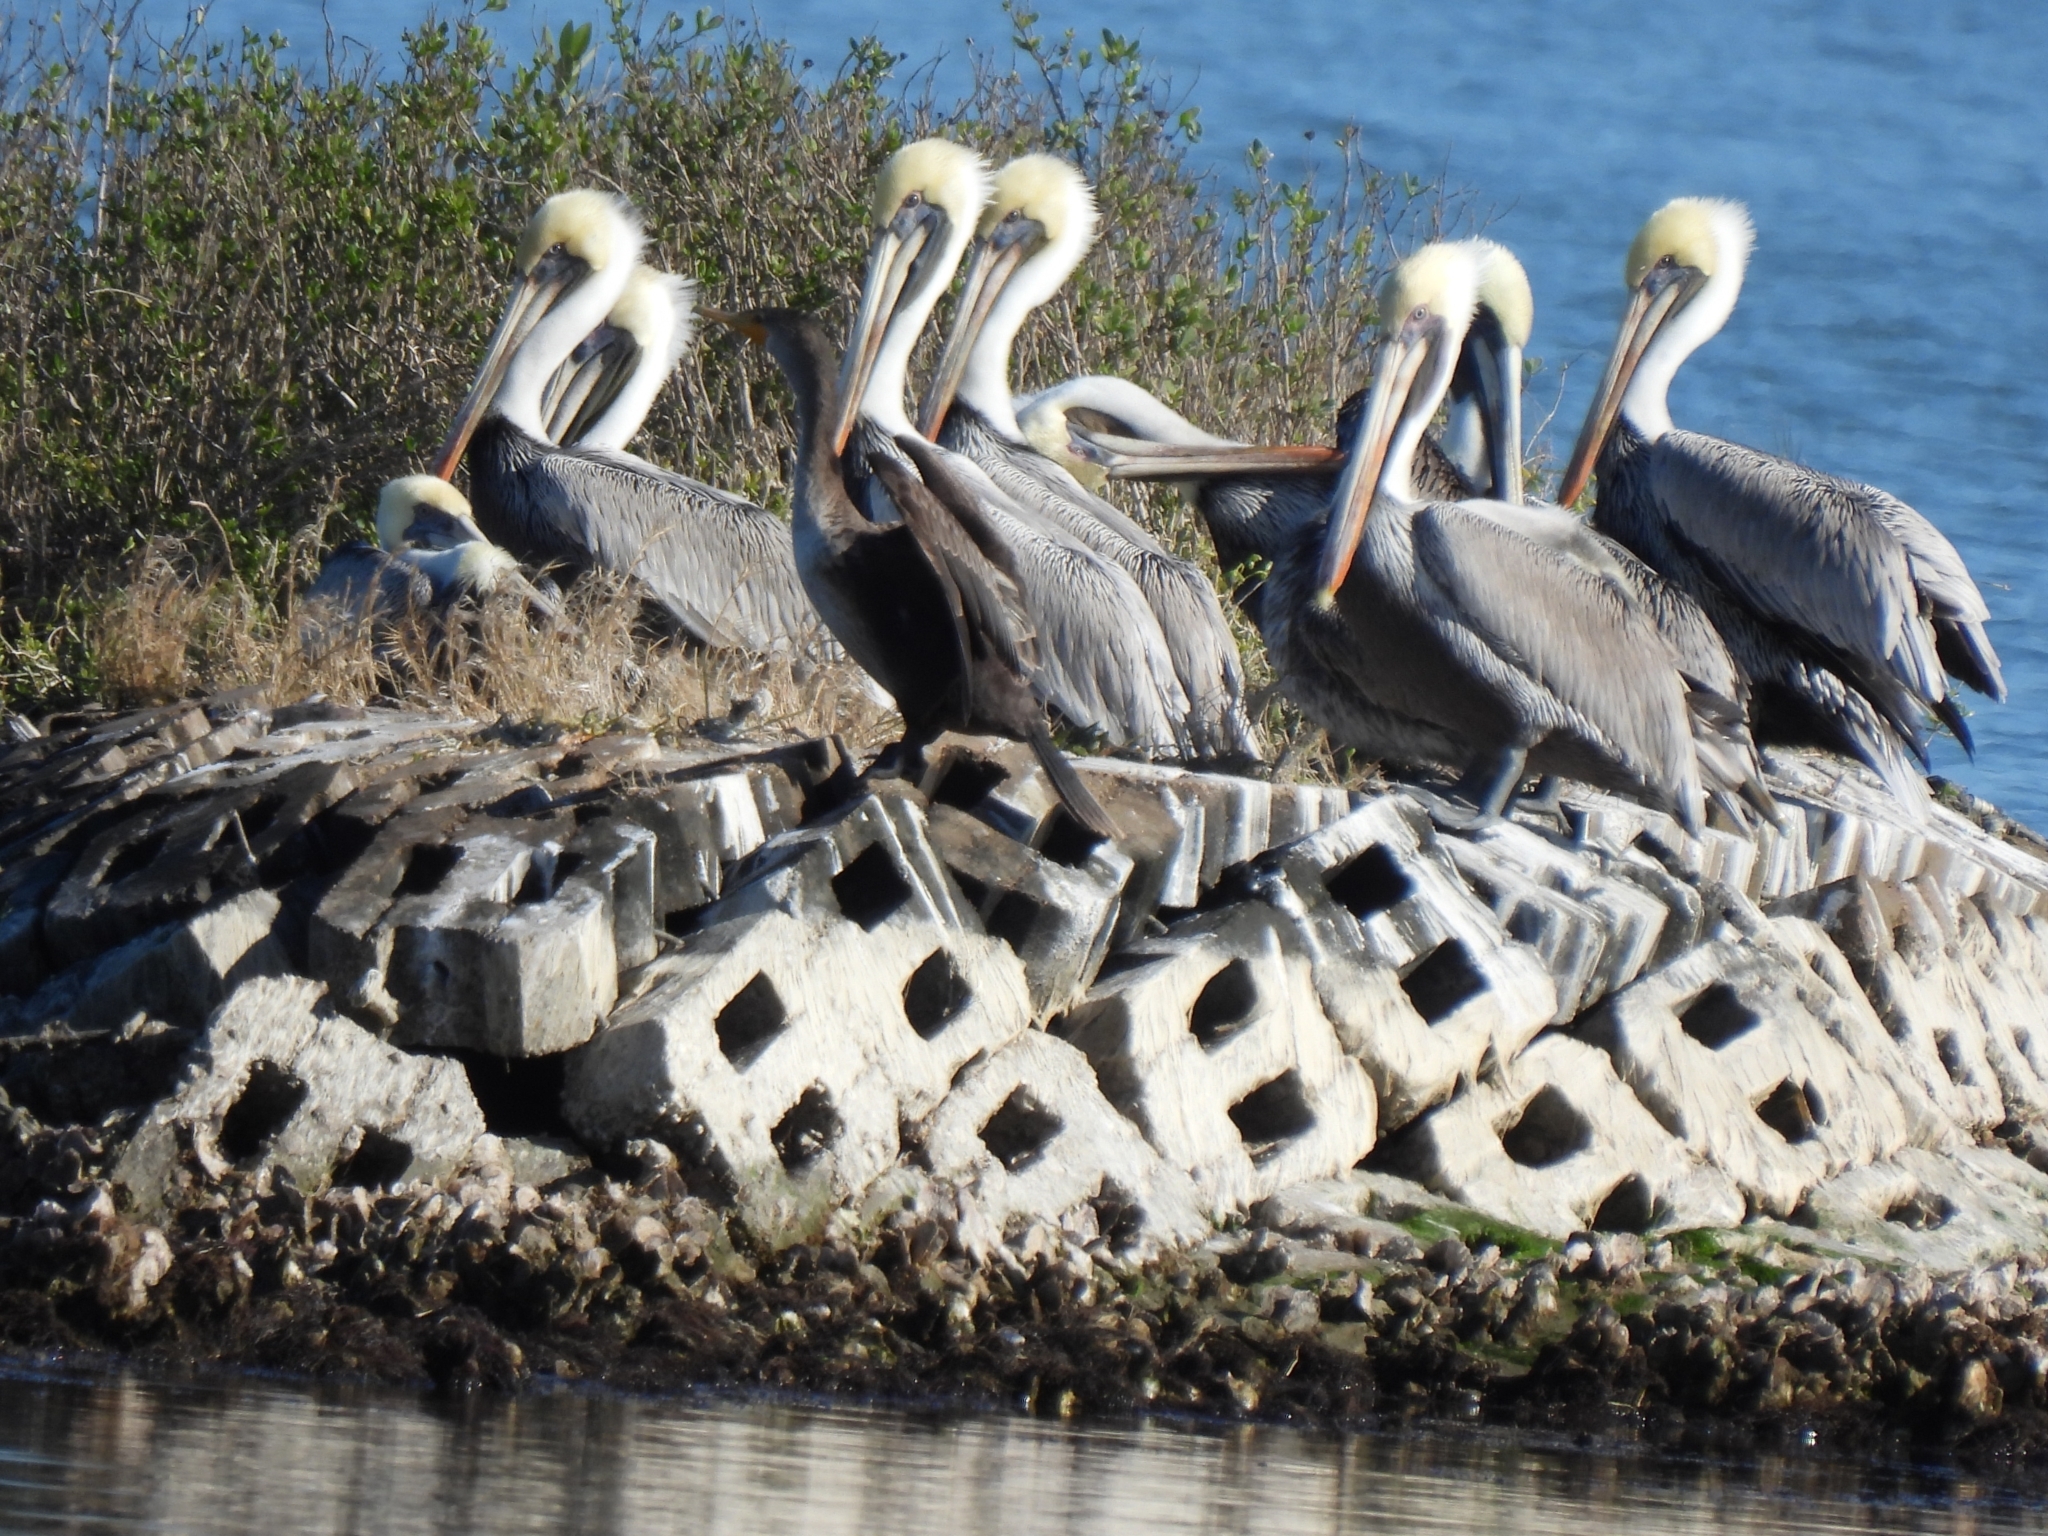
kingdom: Animalia
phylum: Chordata
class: Aves
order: Pelecaniformes
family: Pelecanidae
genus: Pelecanus
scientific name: Pelecanus occidentalis
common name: Brown pelican
